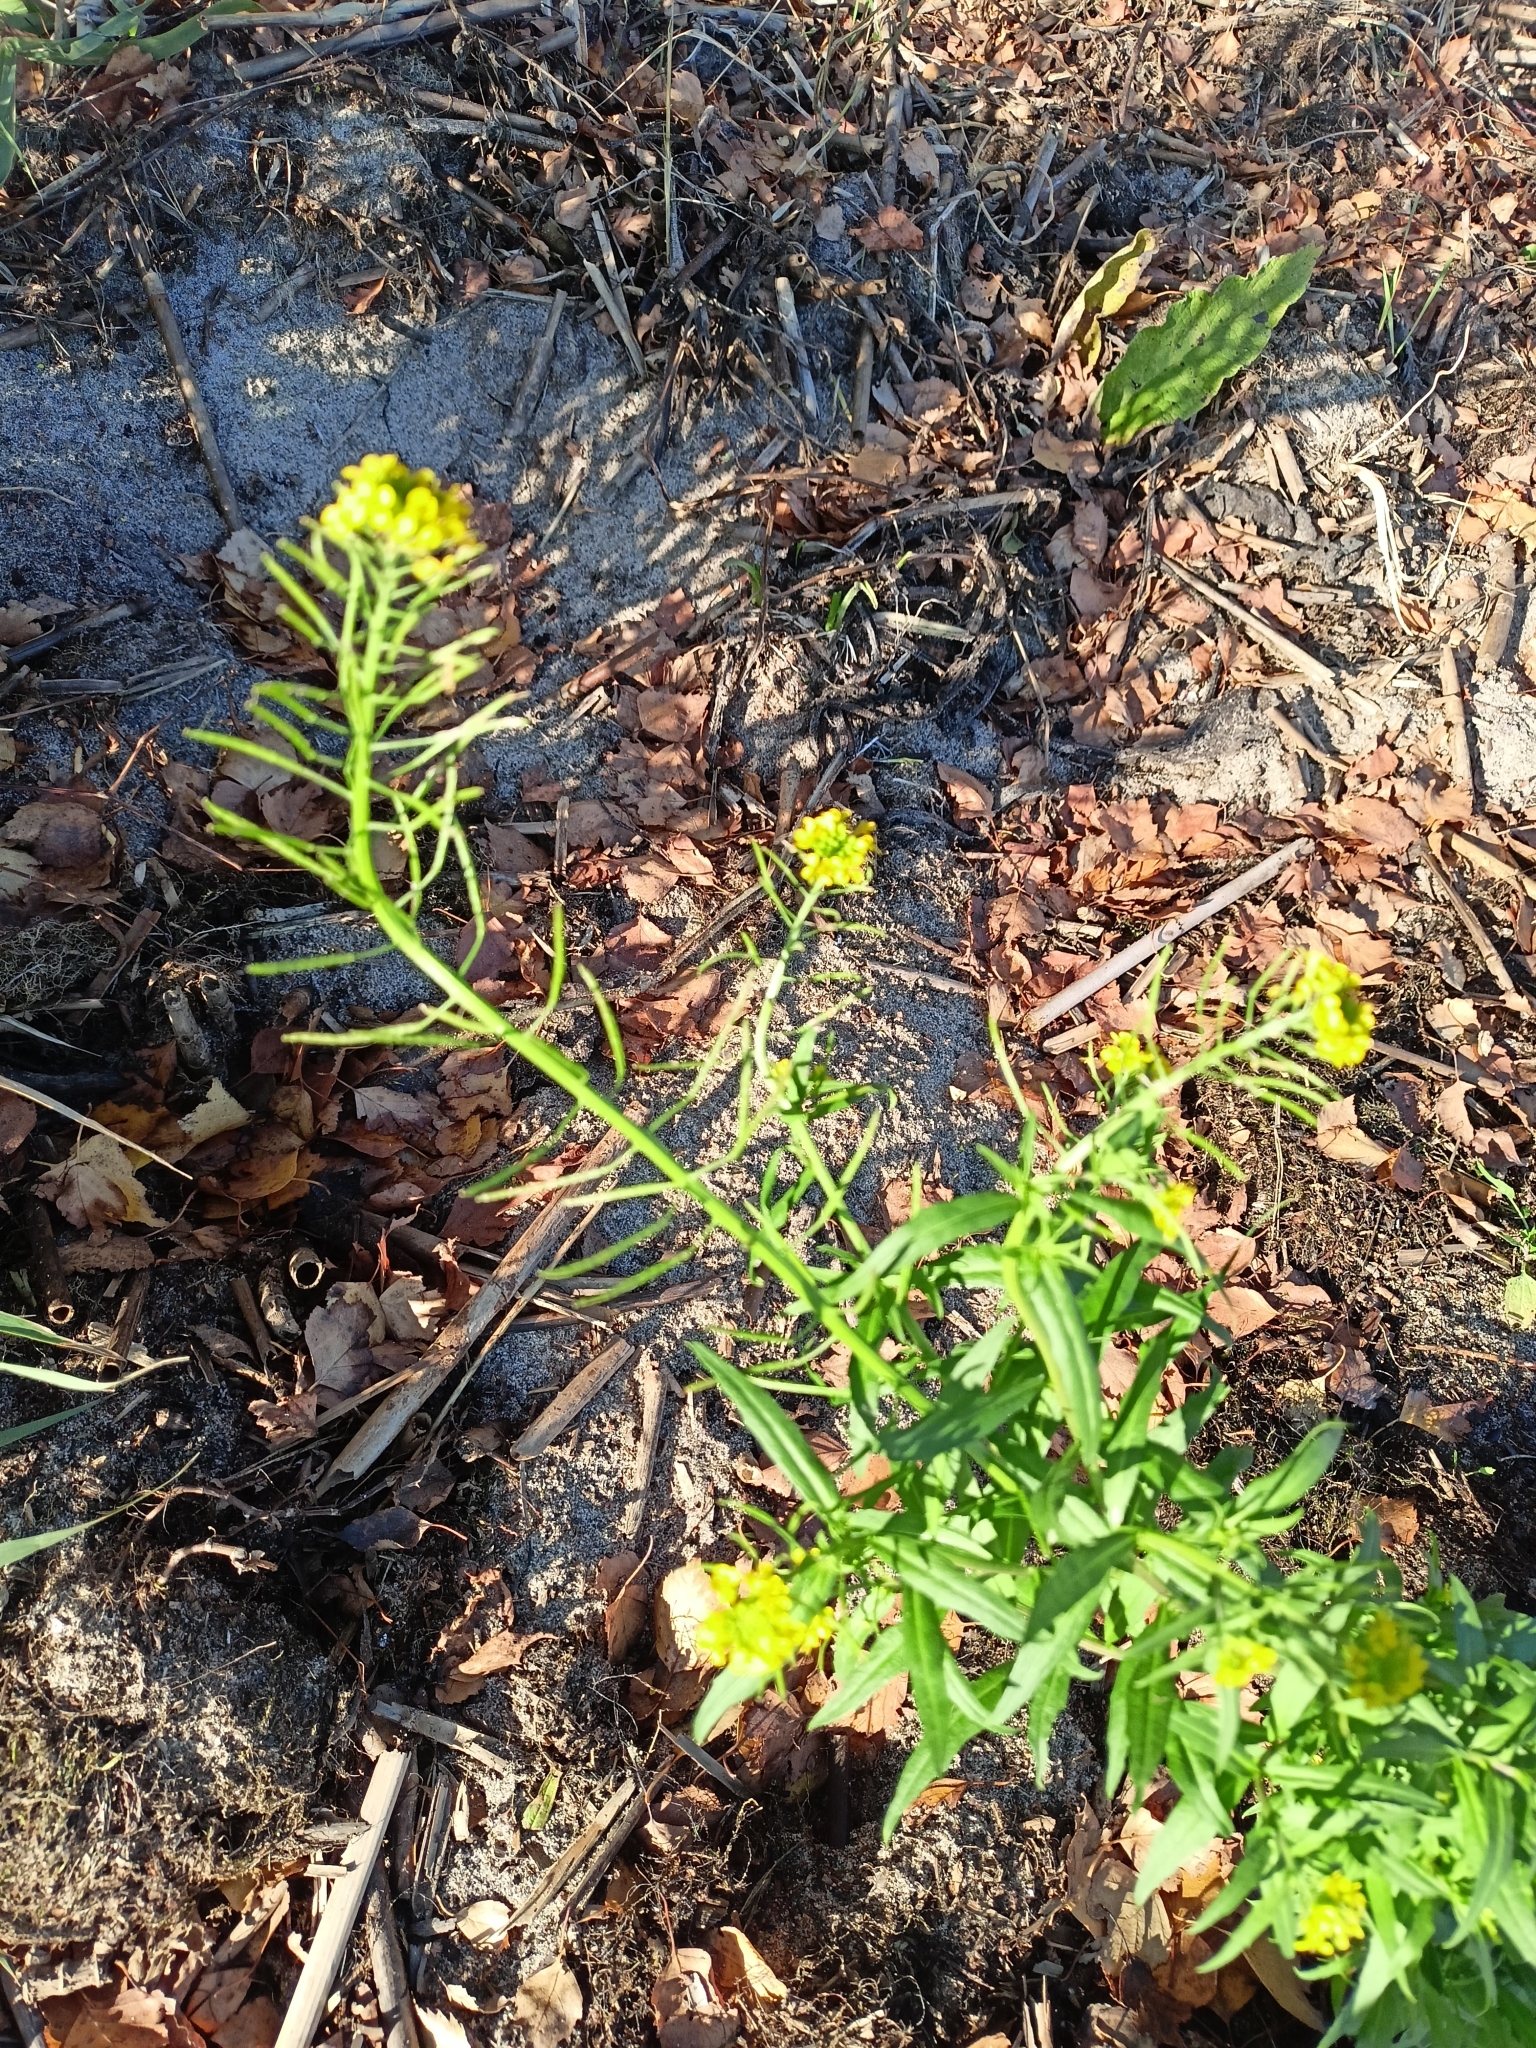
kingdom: Plantae
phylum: Tracheophyta
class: Magnoliopsida
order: Brassicales
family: Brassicaceae
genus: Erysimum
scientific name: Erysimum cheiranthoides
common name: Treacle mustard
